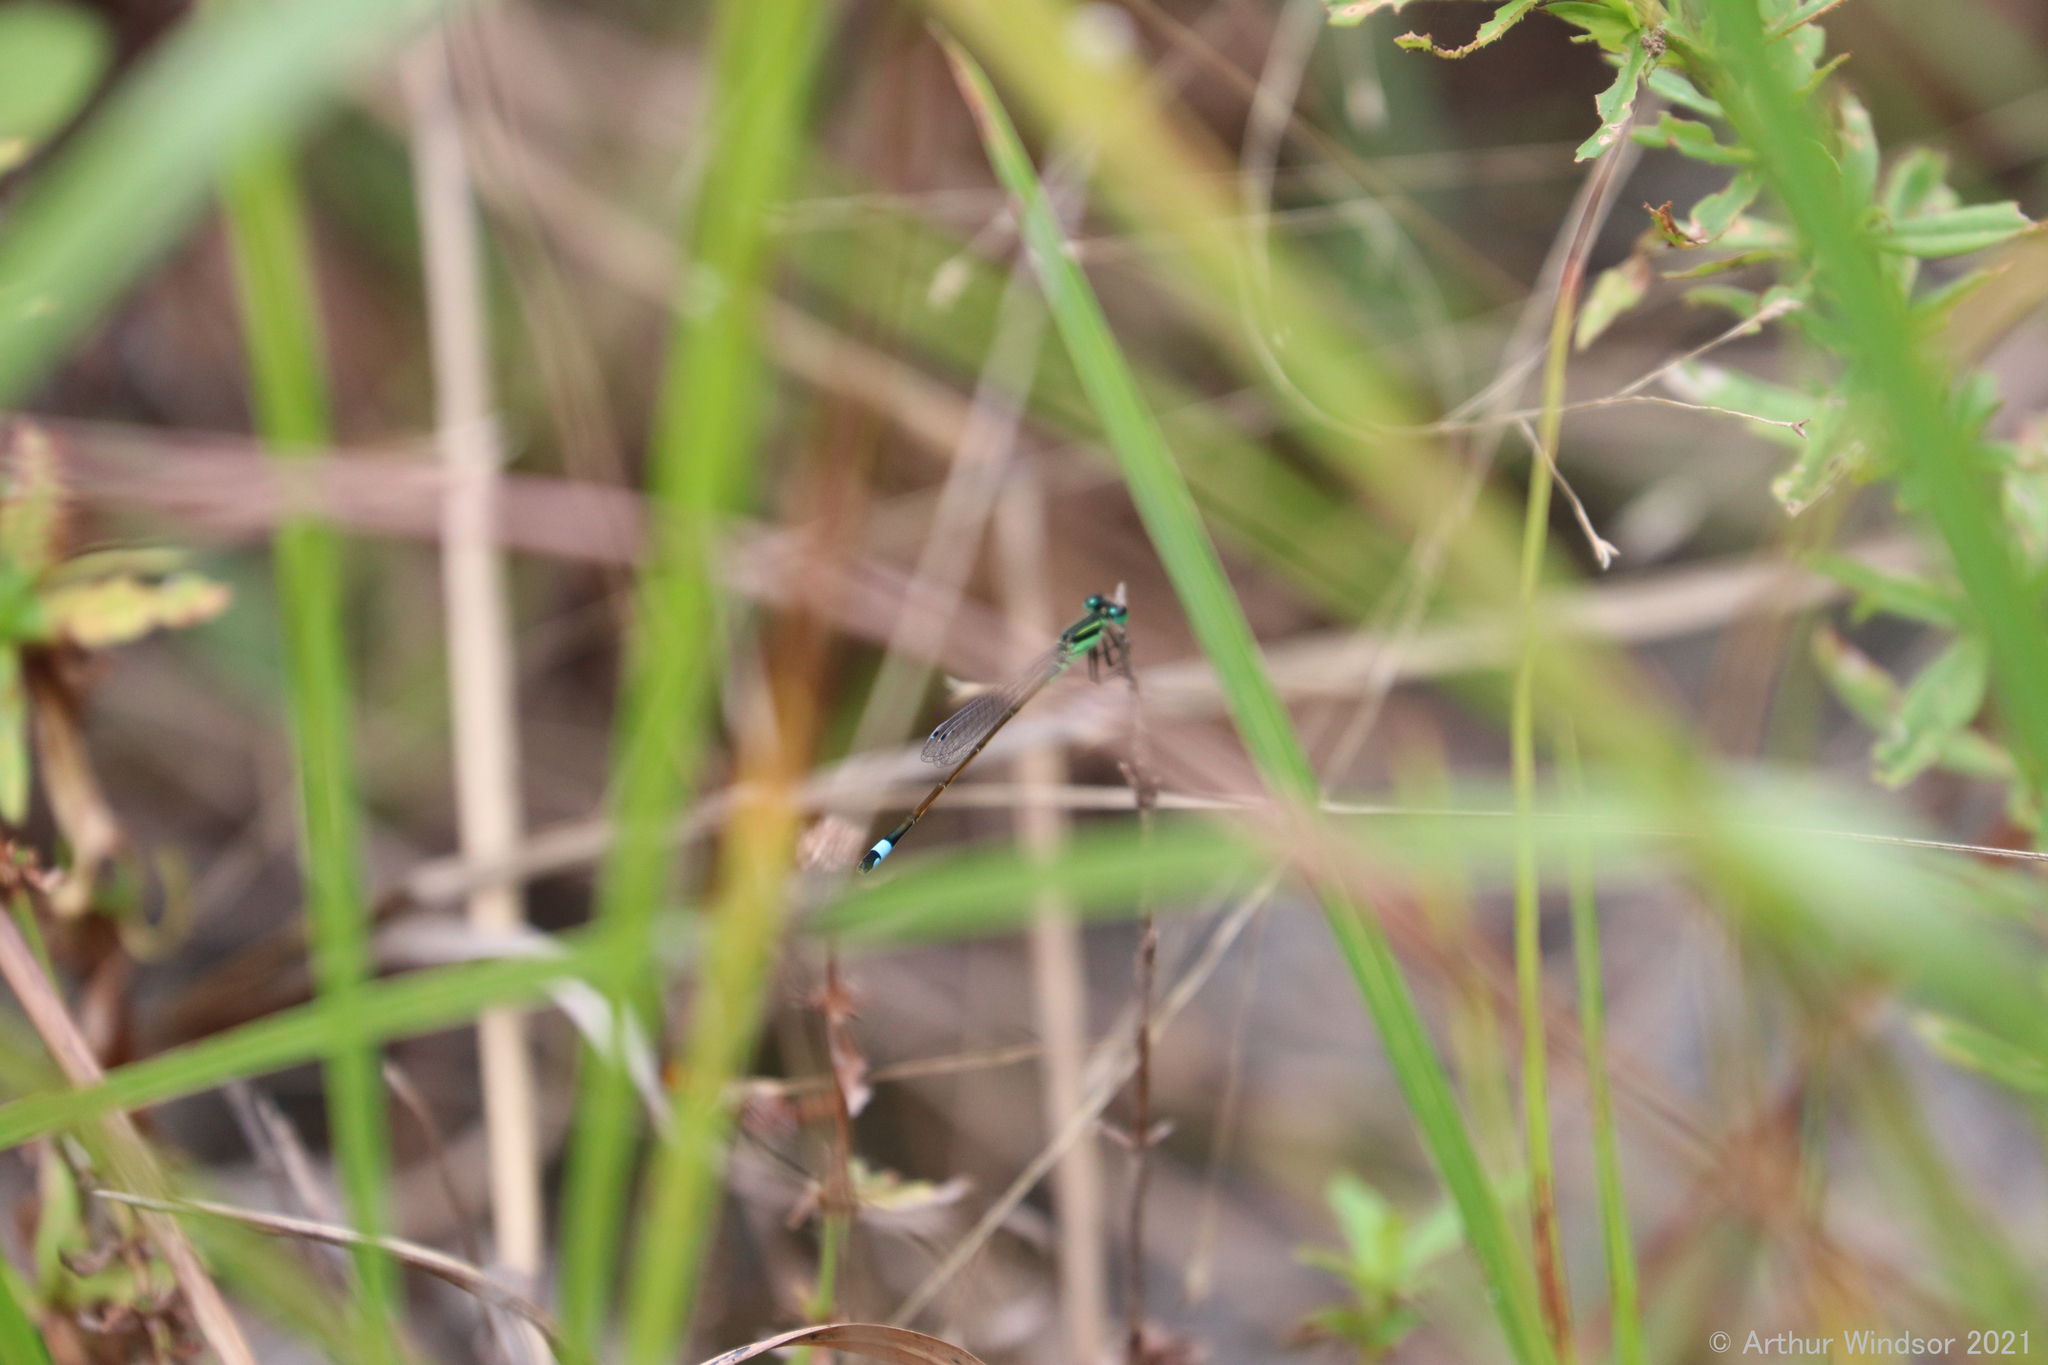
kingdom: Animalia
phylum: Arthropoda
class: Insecta
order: Odonata
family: Coenagrionidae
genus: Ischnura
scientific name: Ischnura ramburii
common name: Rambur's forktail
